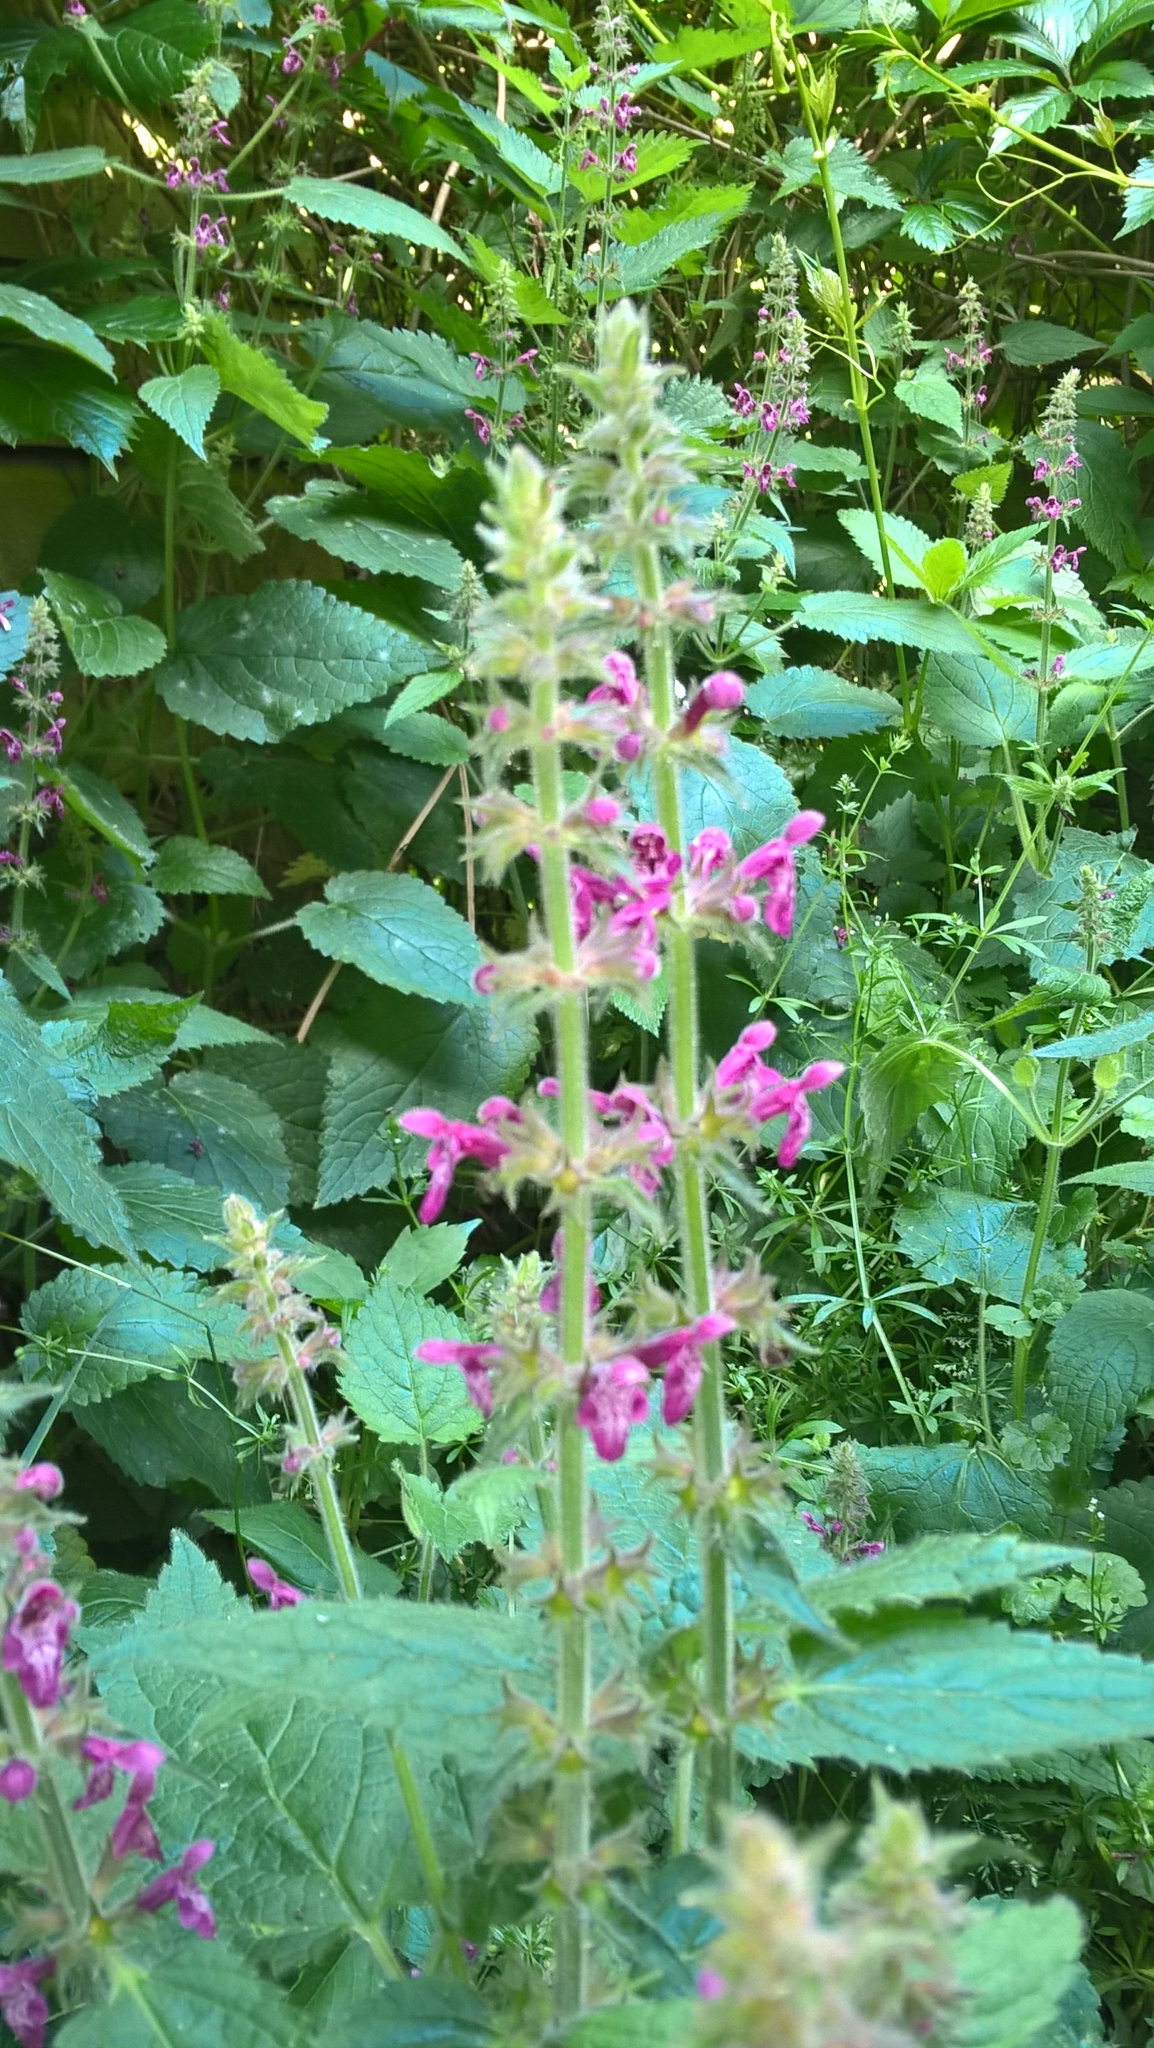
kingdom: Plantae
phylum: Tracheophyta
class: Magnoliopsida
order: Lamiales
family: Lamiaceae
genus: Stachys
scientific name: Stachys sylvatica
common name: Hedge woundwort
